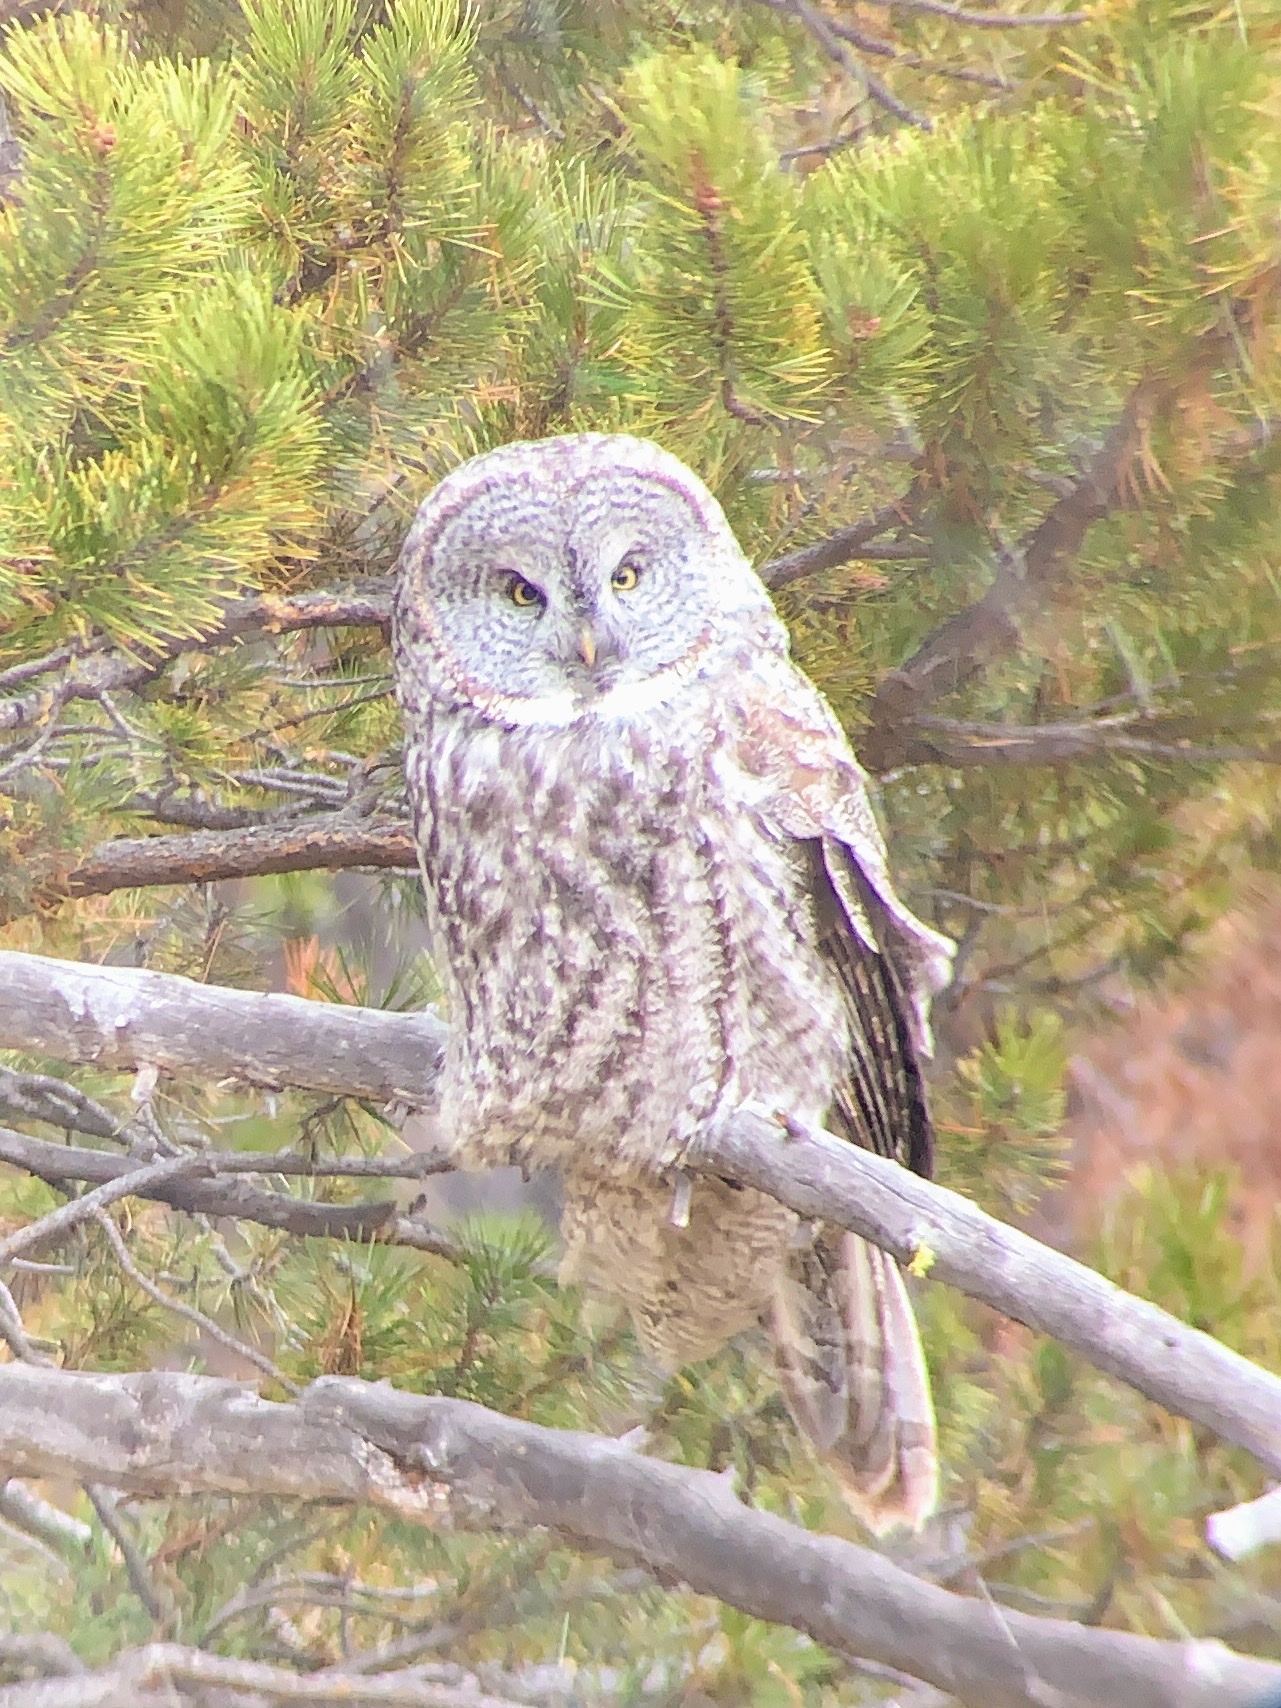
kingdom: Animalia
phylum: Chordata
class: Aves
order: Strigiformes
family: Strigidae
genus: Strix
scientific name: Strix nebulosa
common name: Great grey owl
